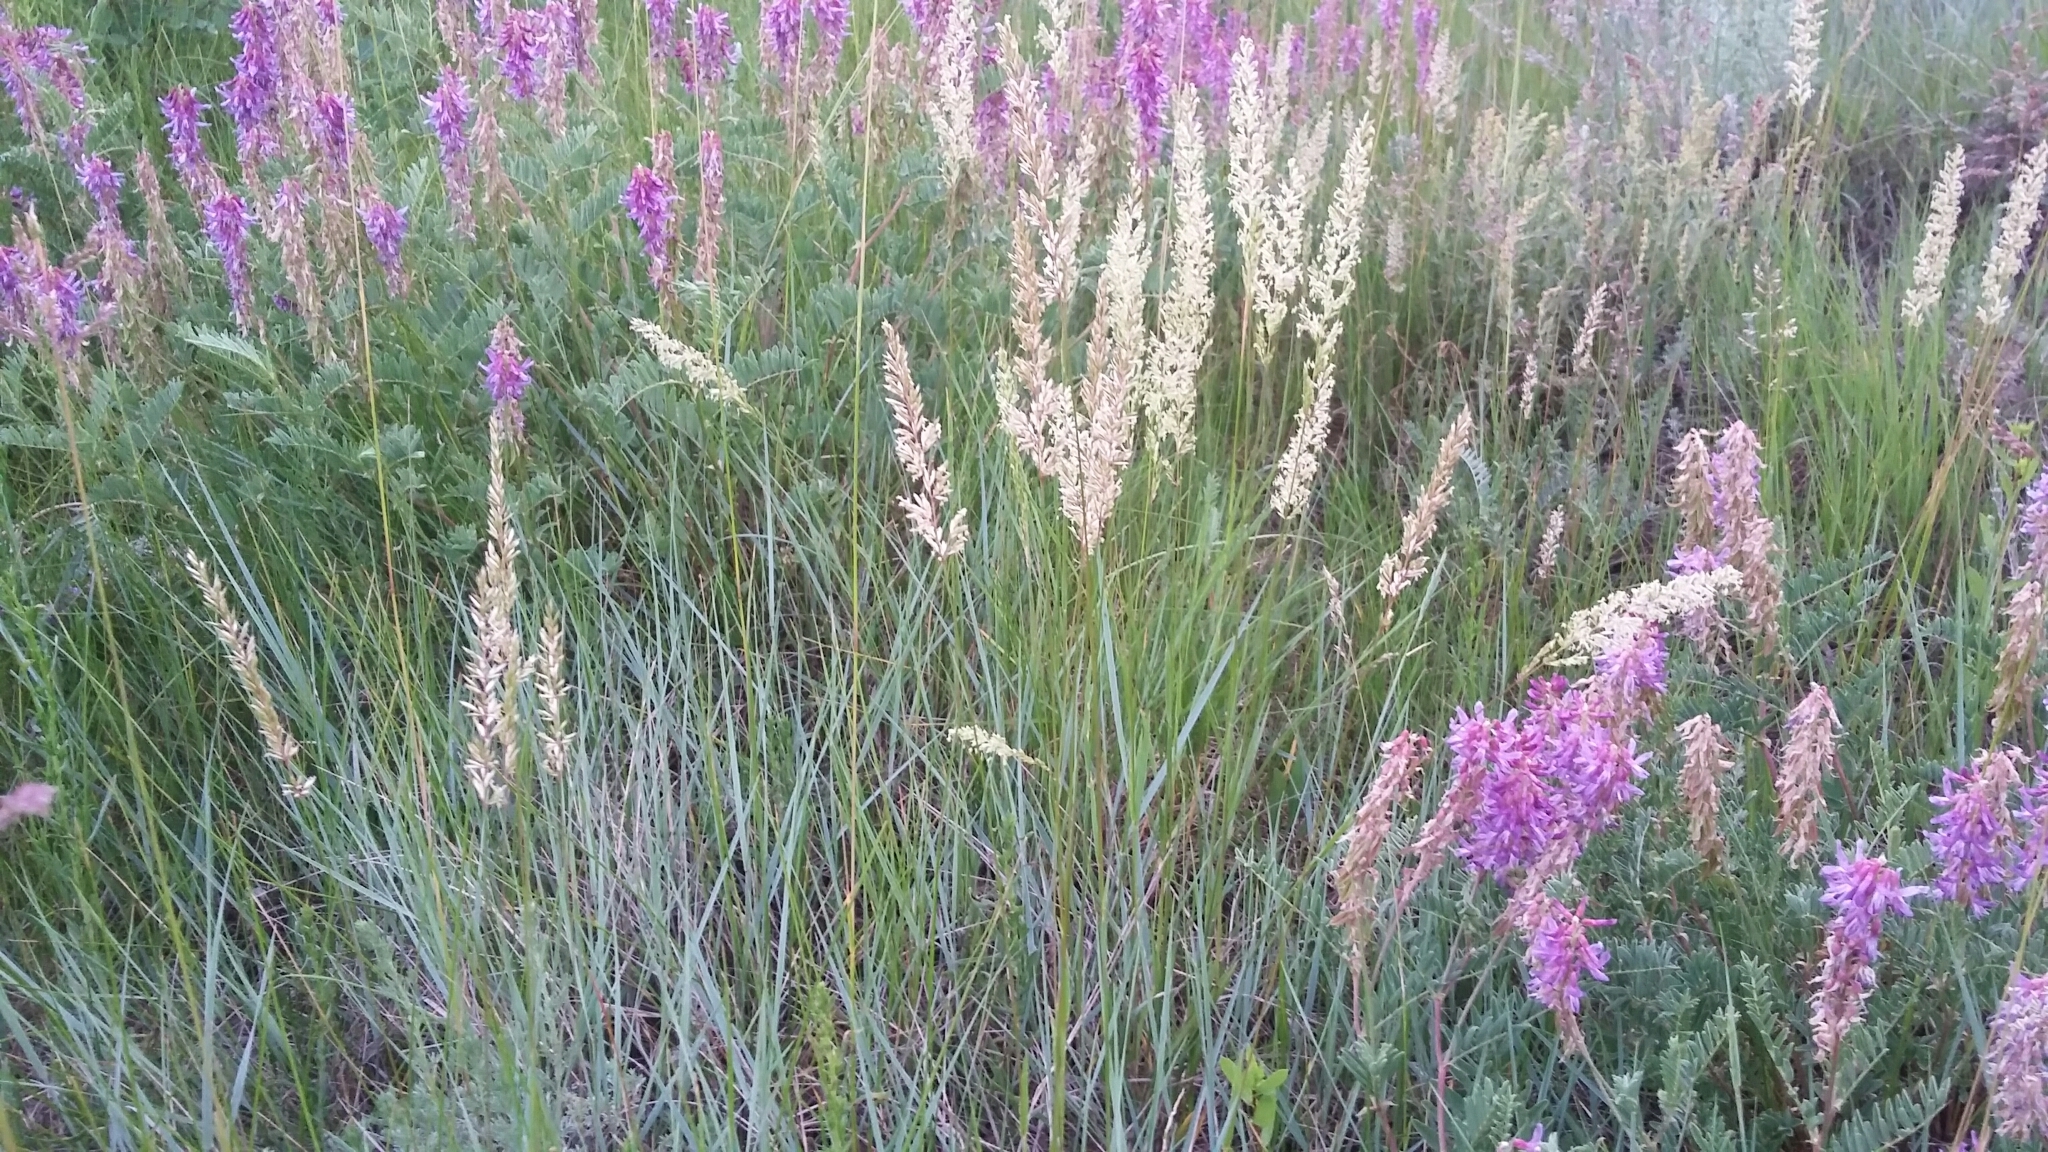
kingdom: Plantae
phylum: Tracheophyta
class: Liliopsida
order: Poales
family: Poaceae
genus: Koeleria
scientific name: Koeleria macrantha
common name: Crested hair-grass
